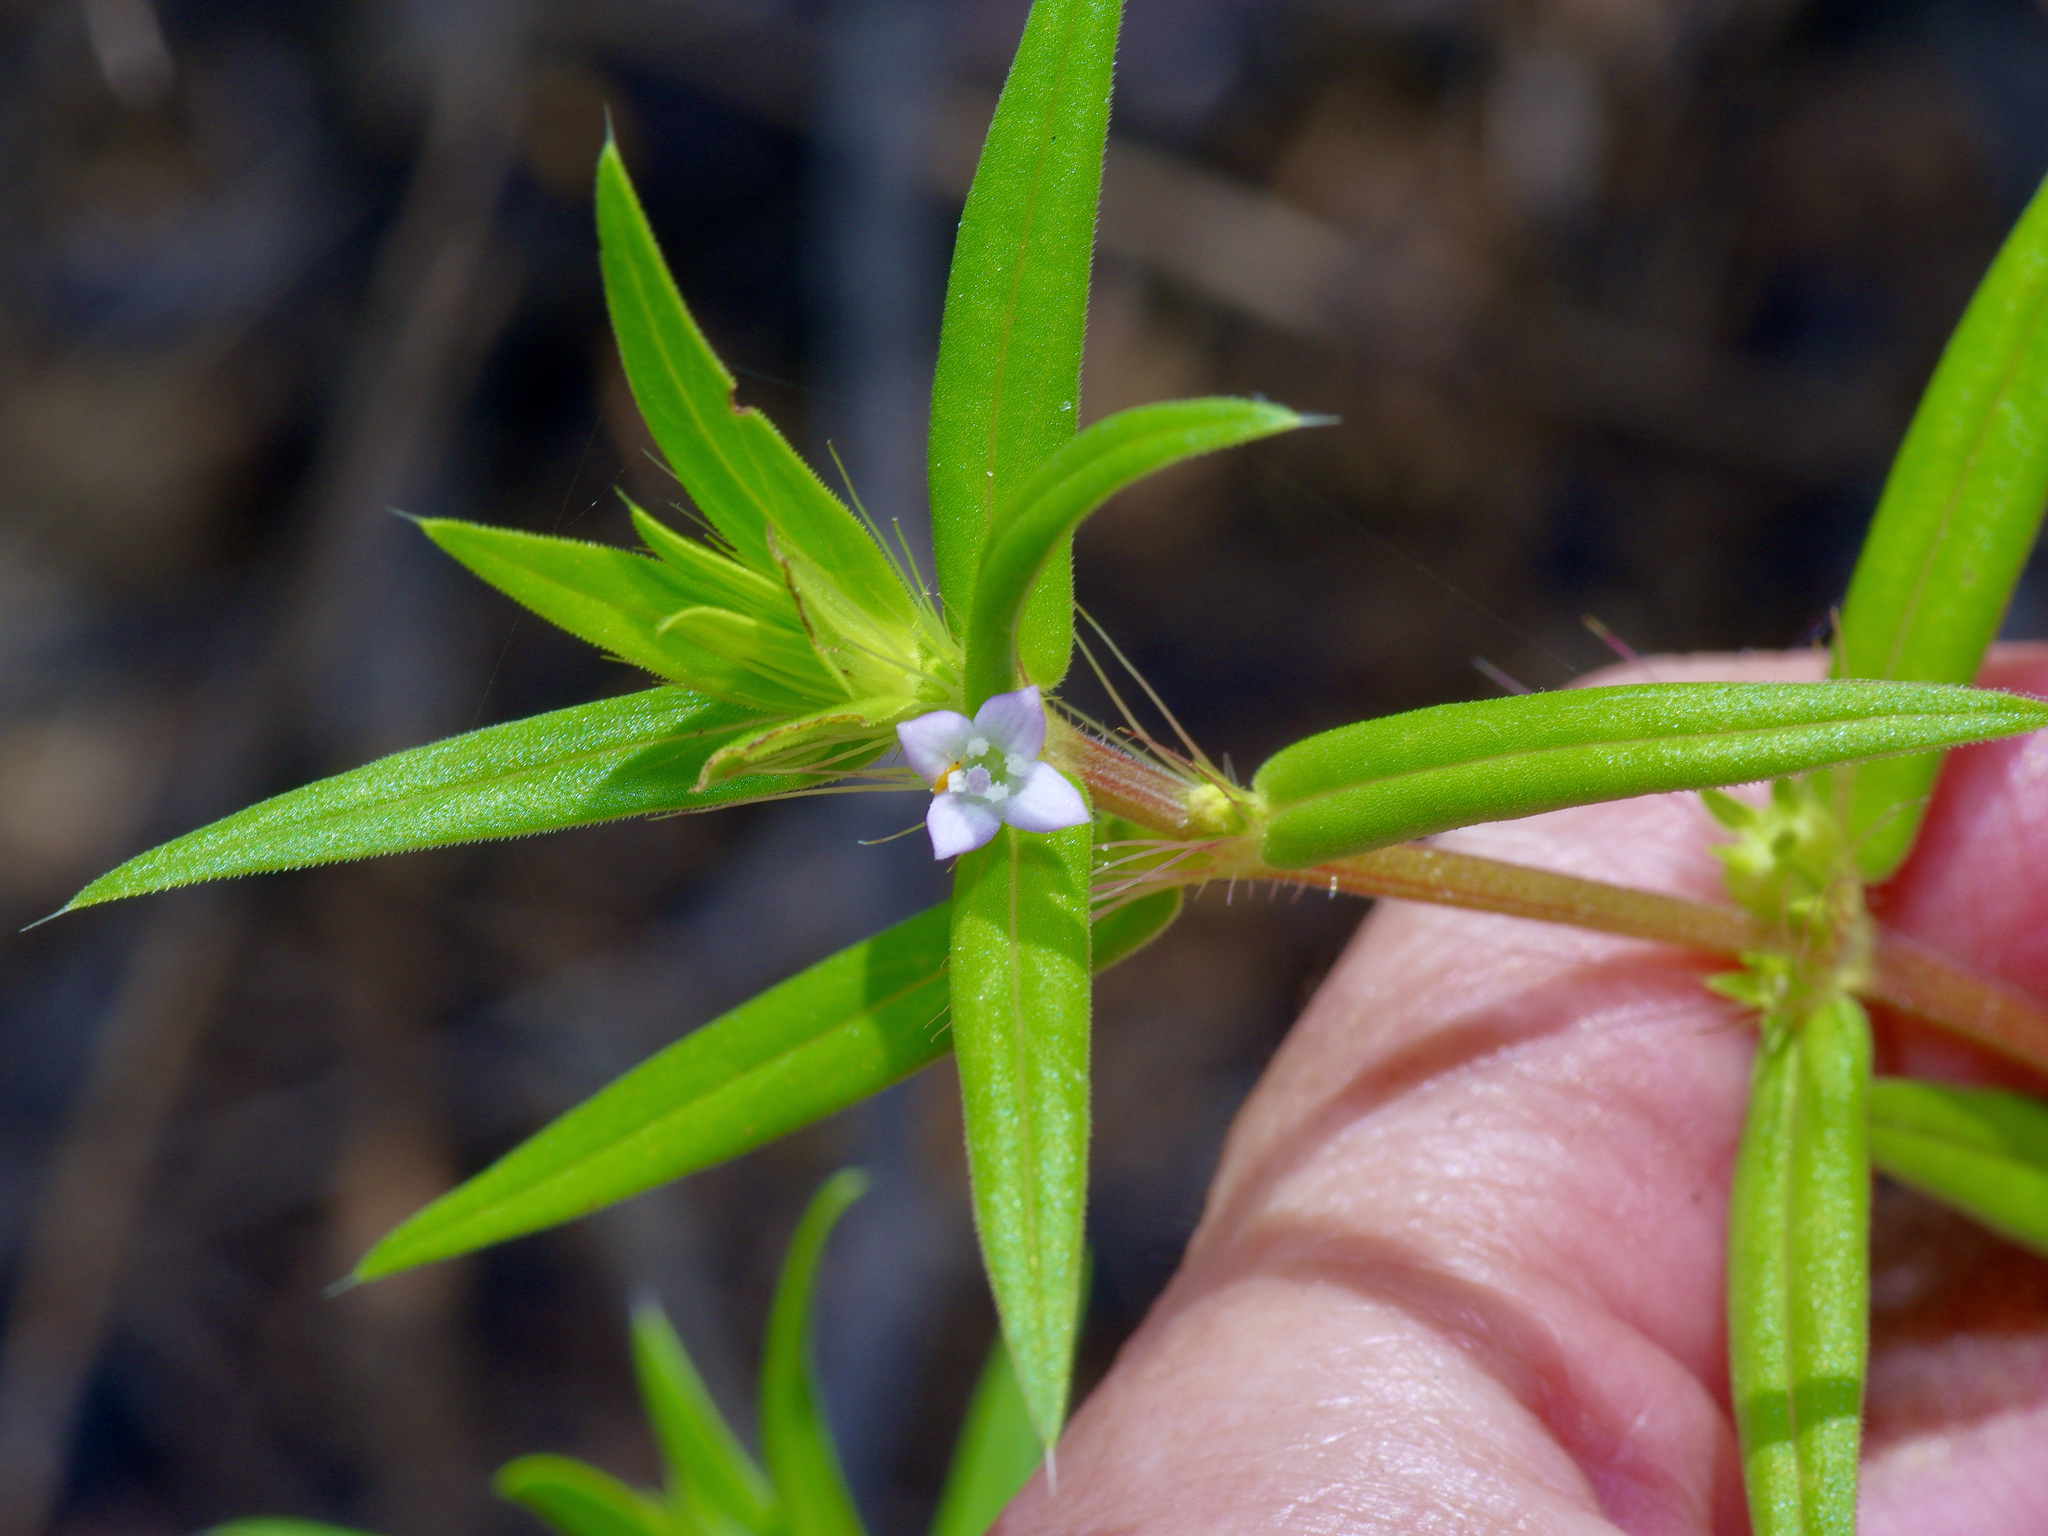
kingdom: Plantae
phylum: Tracheophyta
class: Magnoliopsida
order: Gentianales
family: Rubiaceae
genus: Hexasepalum
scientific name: Hexasepalum teres
